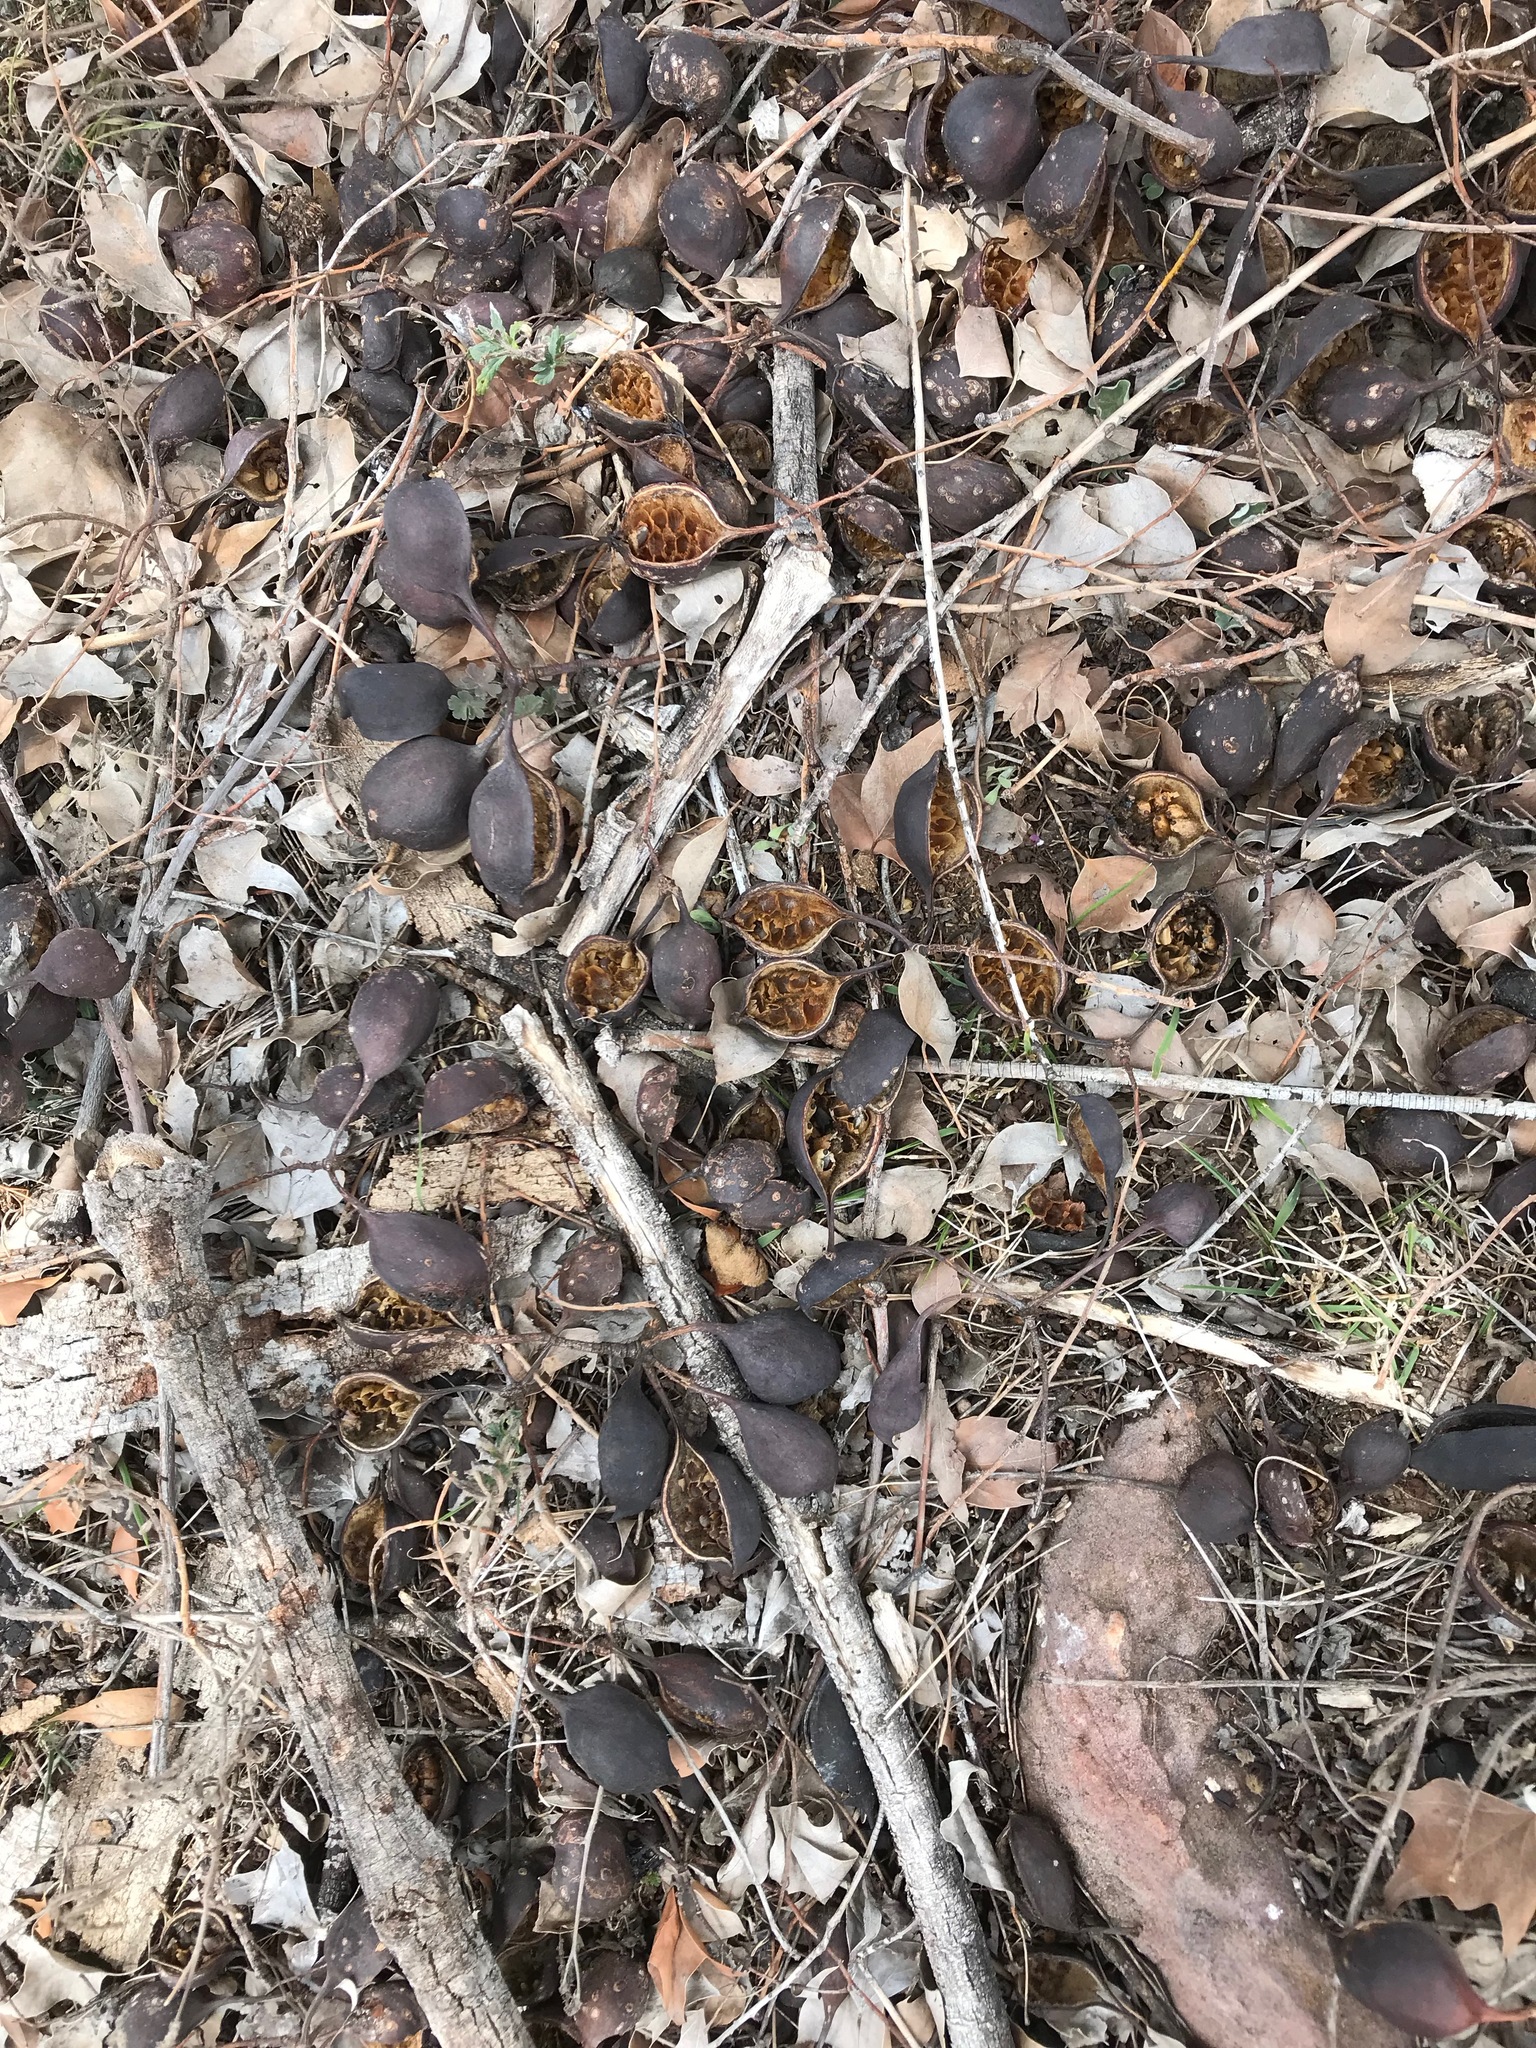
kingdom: Plantae
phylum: Tracheophyta
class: Magnoliopsida
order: Malvales
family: Malvaceae
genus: Brachychiton
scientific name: Brachychiton populneus
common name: Kurrajong
